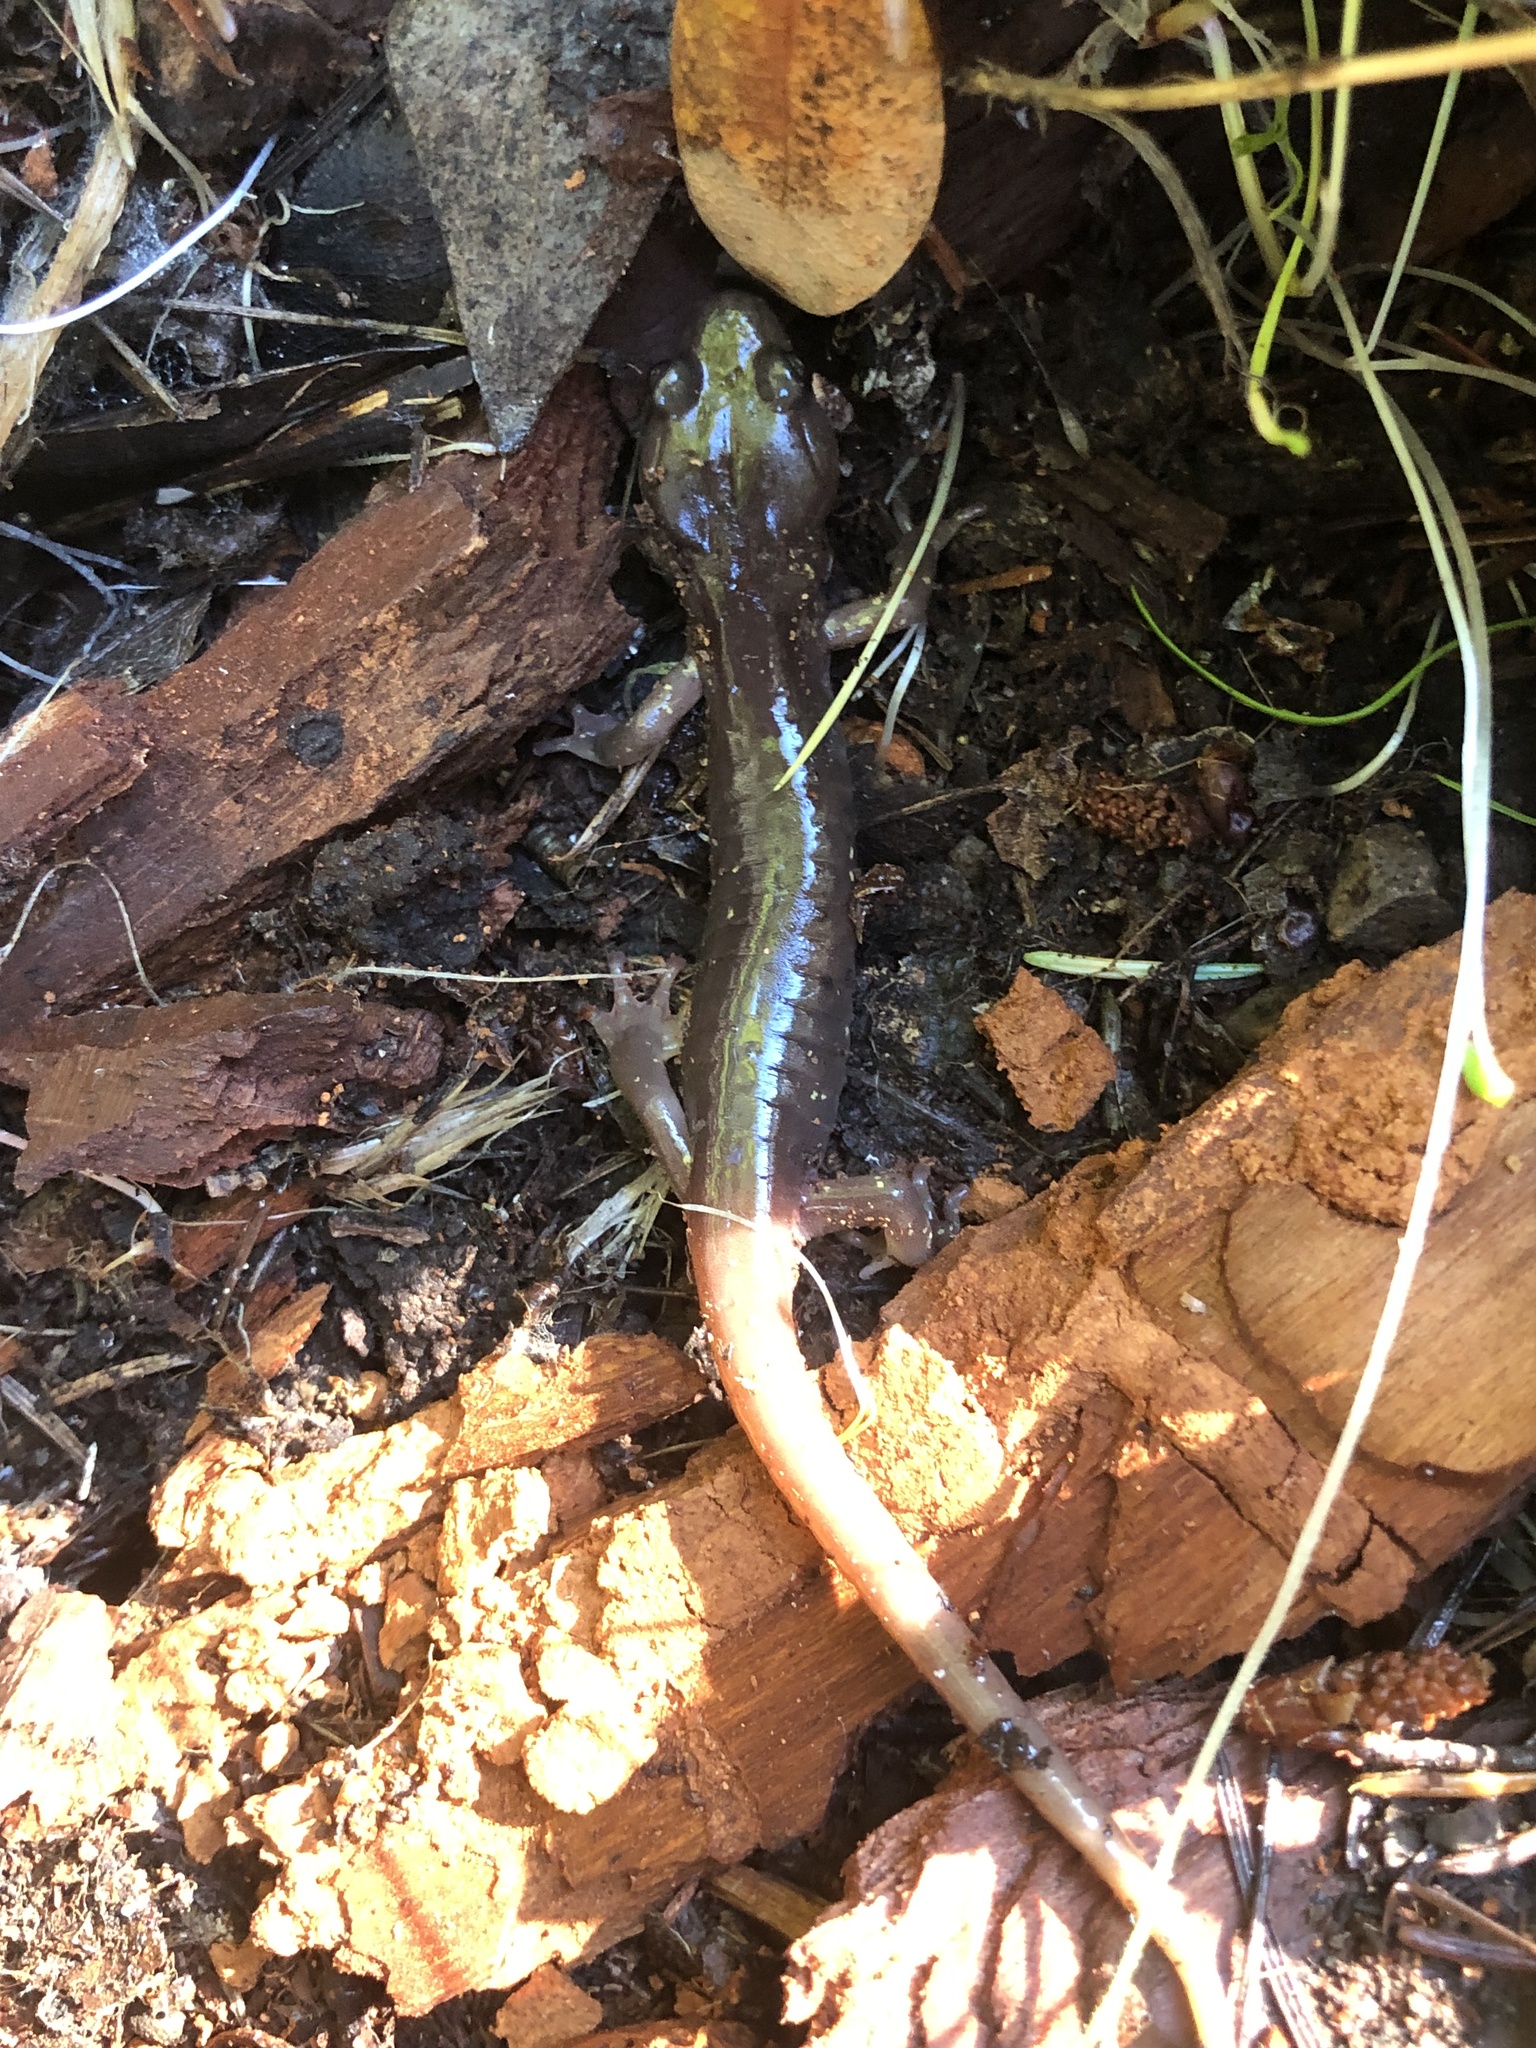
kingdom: Animalia
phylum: Chordata
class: Amphibia
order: Caudata
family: Plethodontidae
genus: Aneides
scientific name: Aneides lugubris
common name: Arboreal salamander
